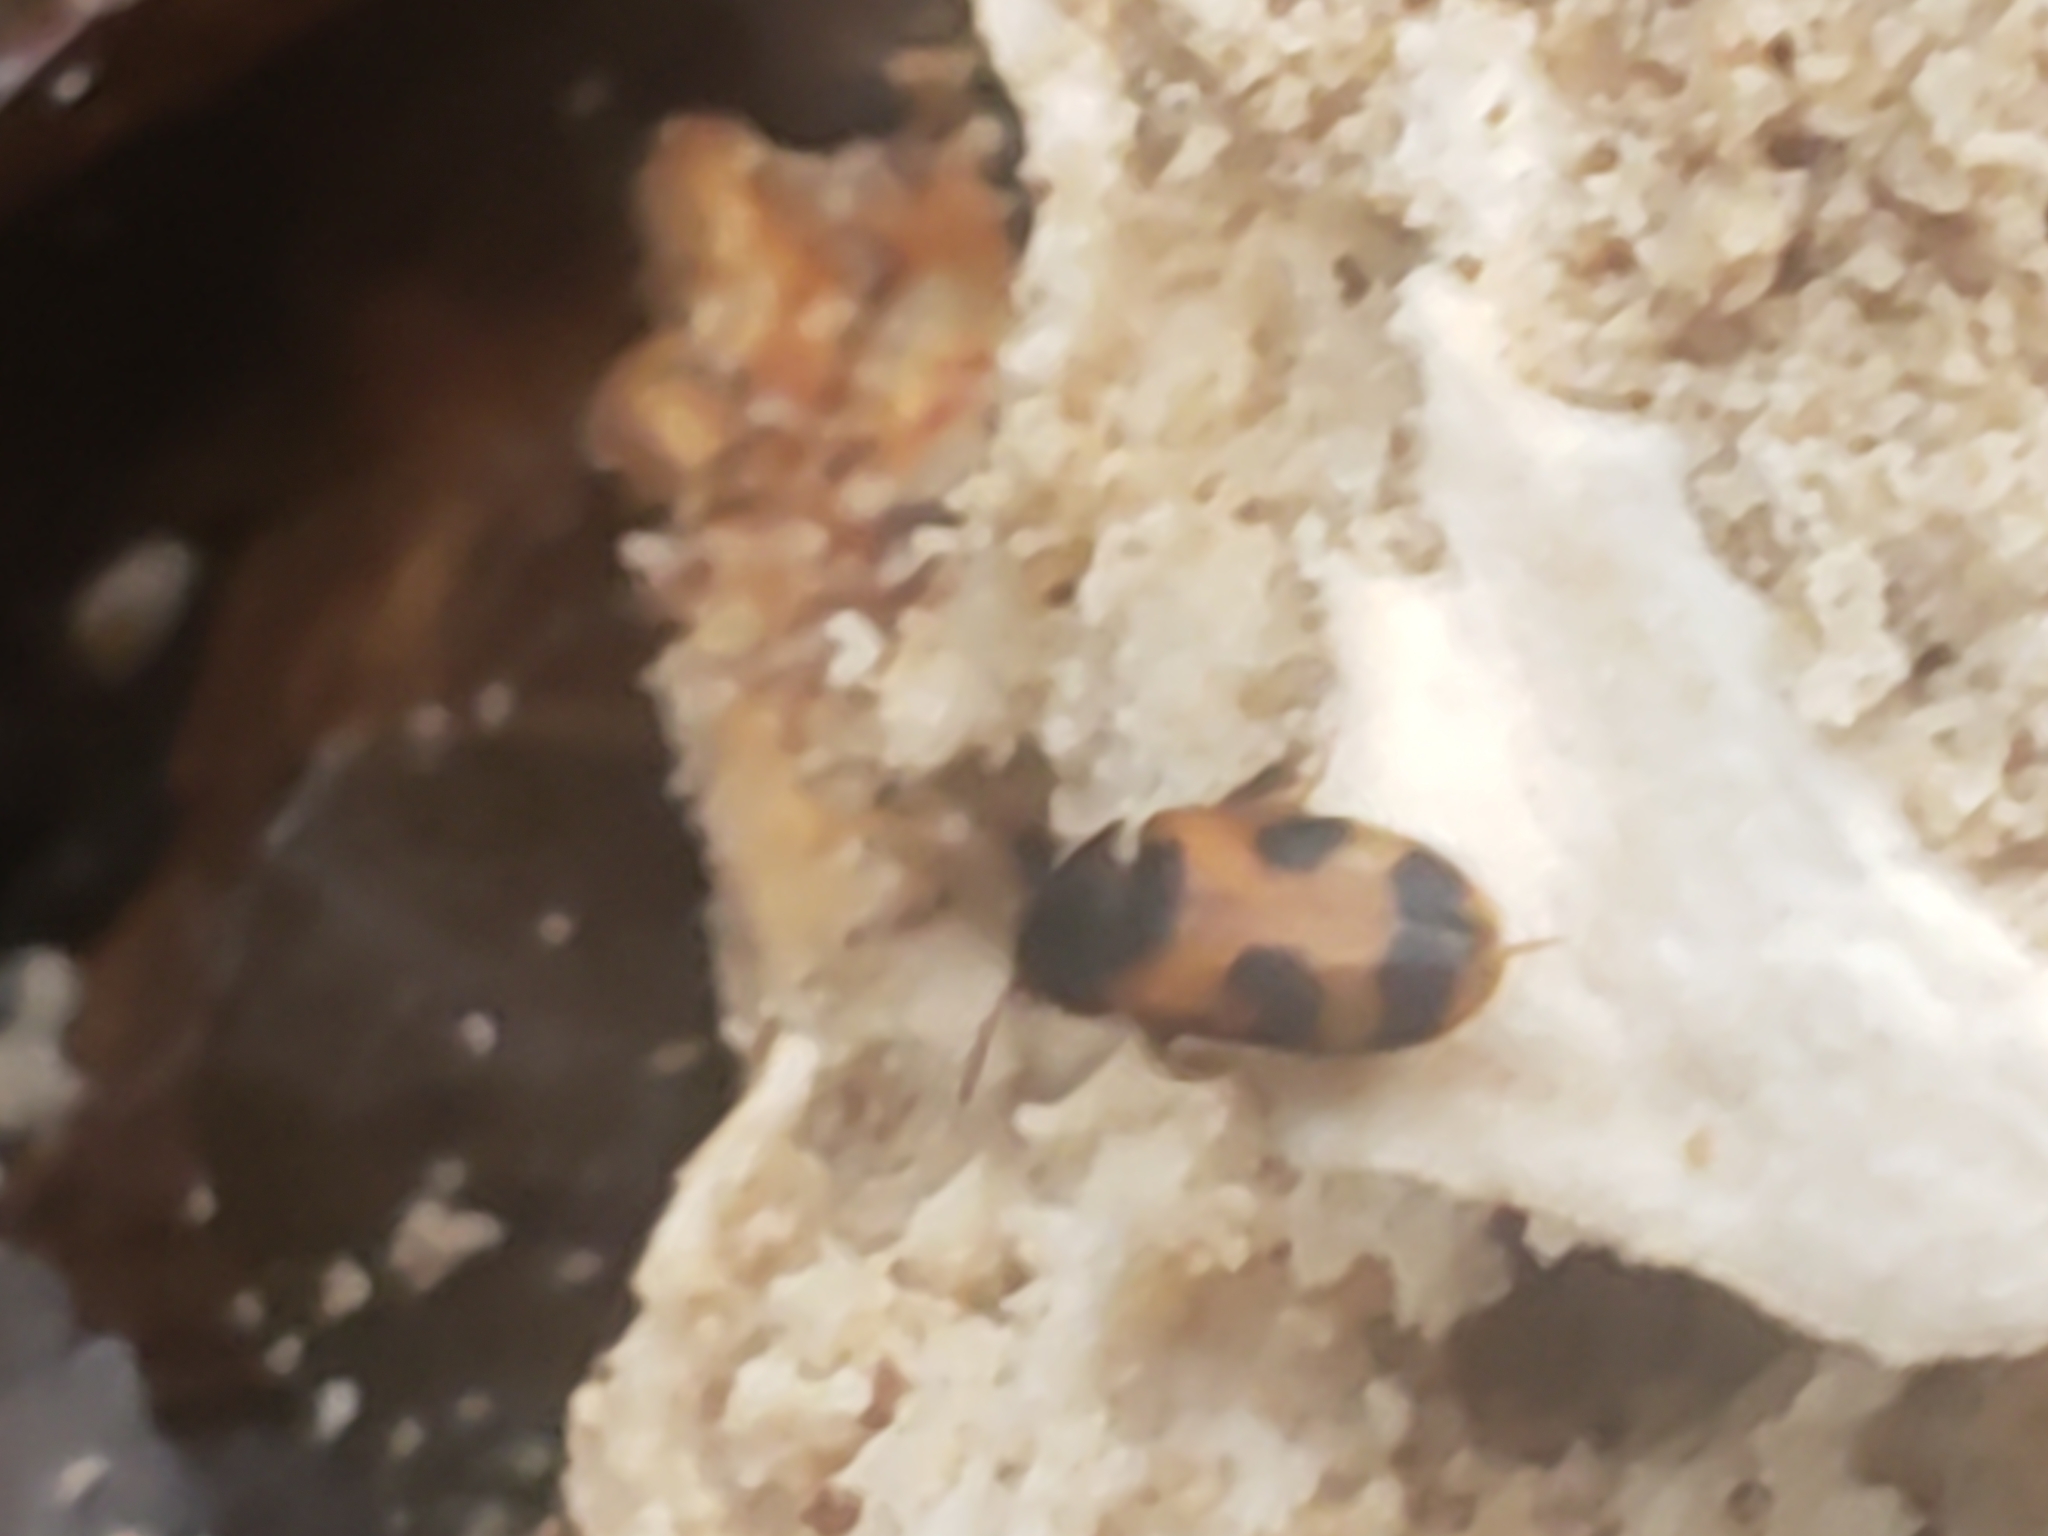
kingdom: Animalia
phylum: Arthropoda
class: Insecta
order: Coleoptera
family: Mycetophagidae
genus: Mycetophagus
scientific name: Mycetophagus punctatus
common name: Hairy fungus beetle
